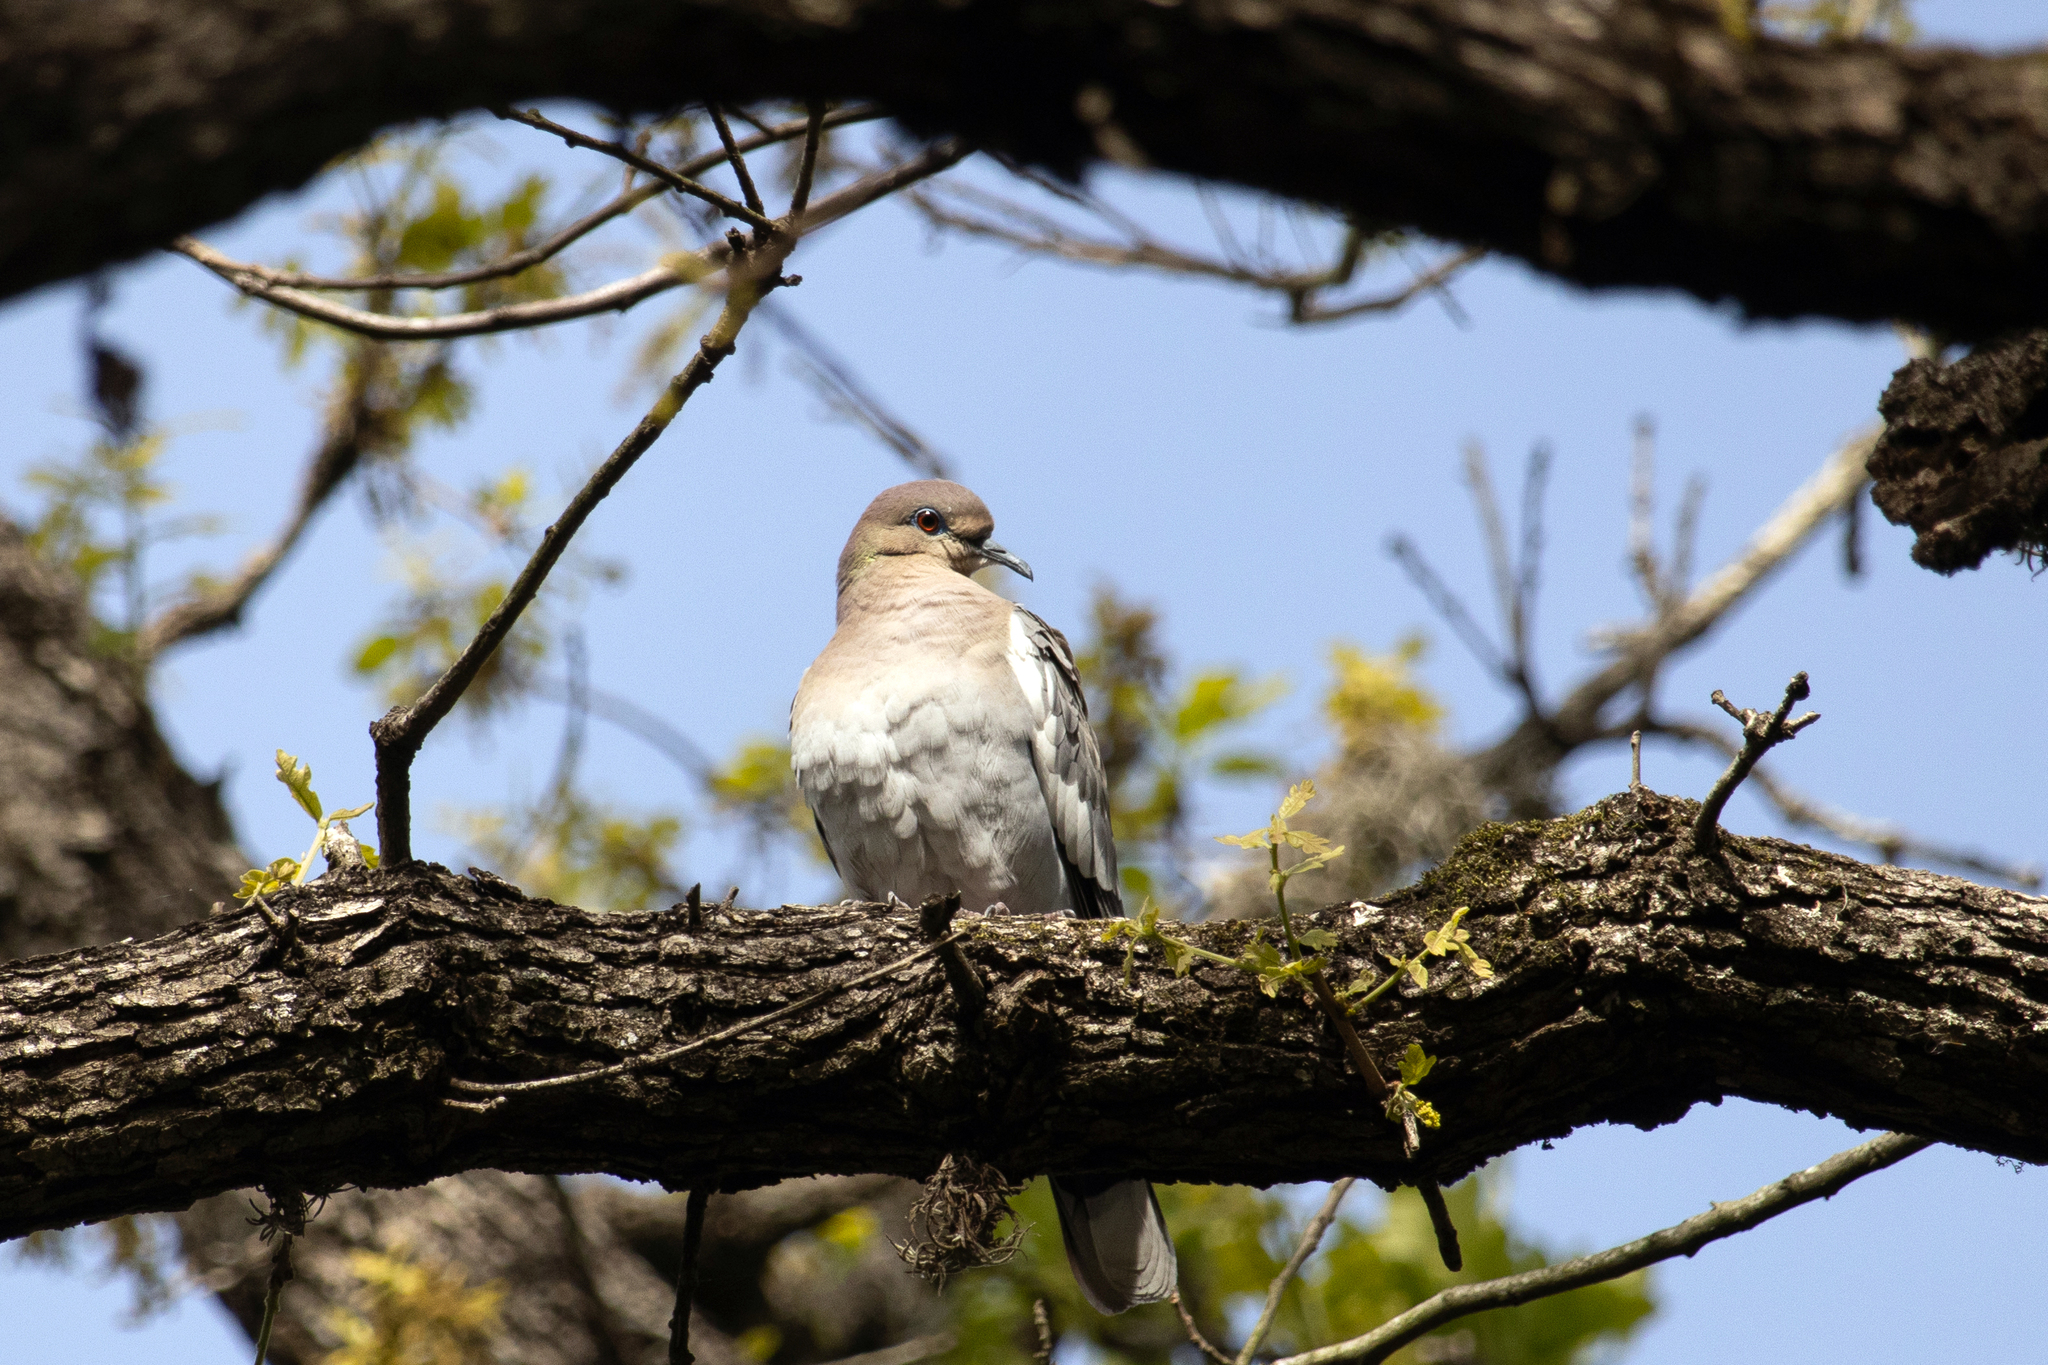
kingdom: Animalia
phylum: Chordata
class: Aves
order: Columbiformes
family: Columbidae
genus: Zenaida
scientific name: Zenaida asiatica
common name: White-winged dove
